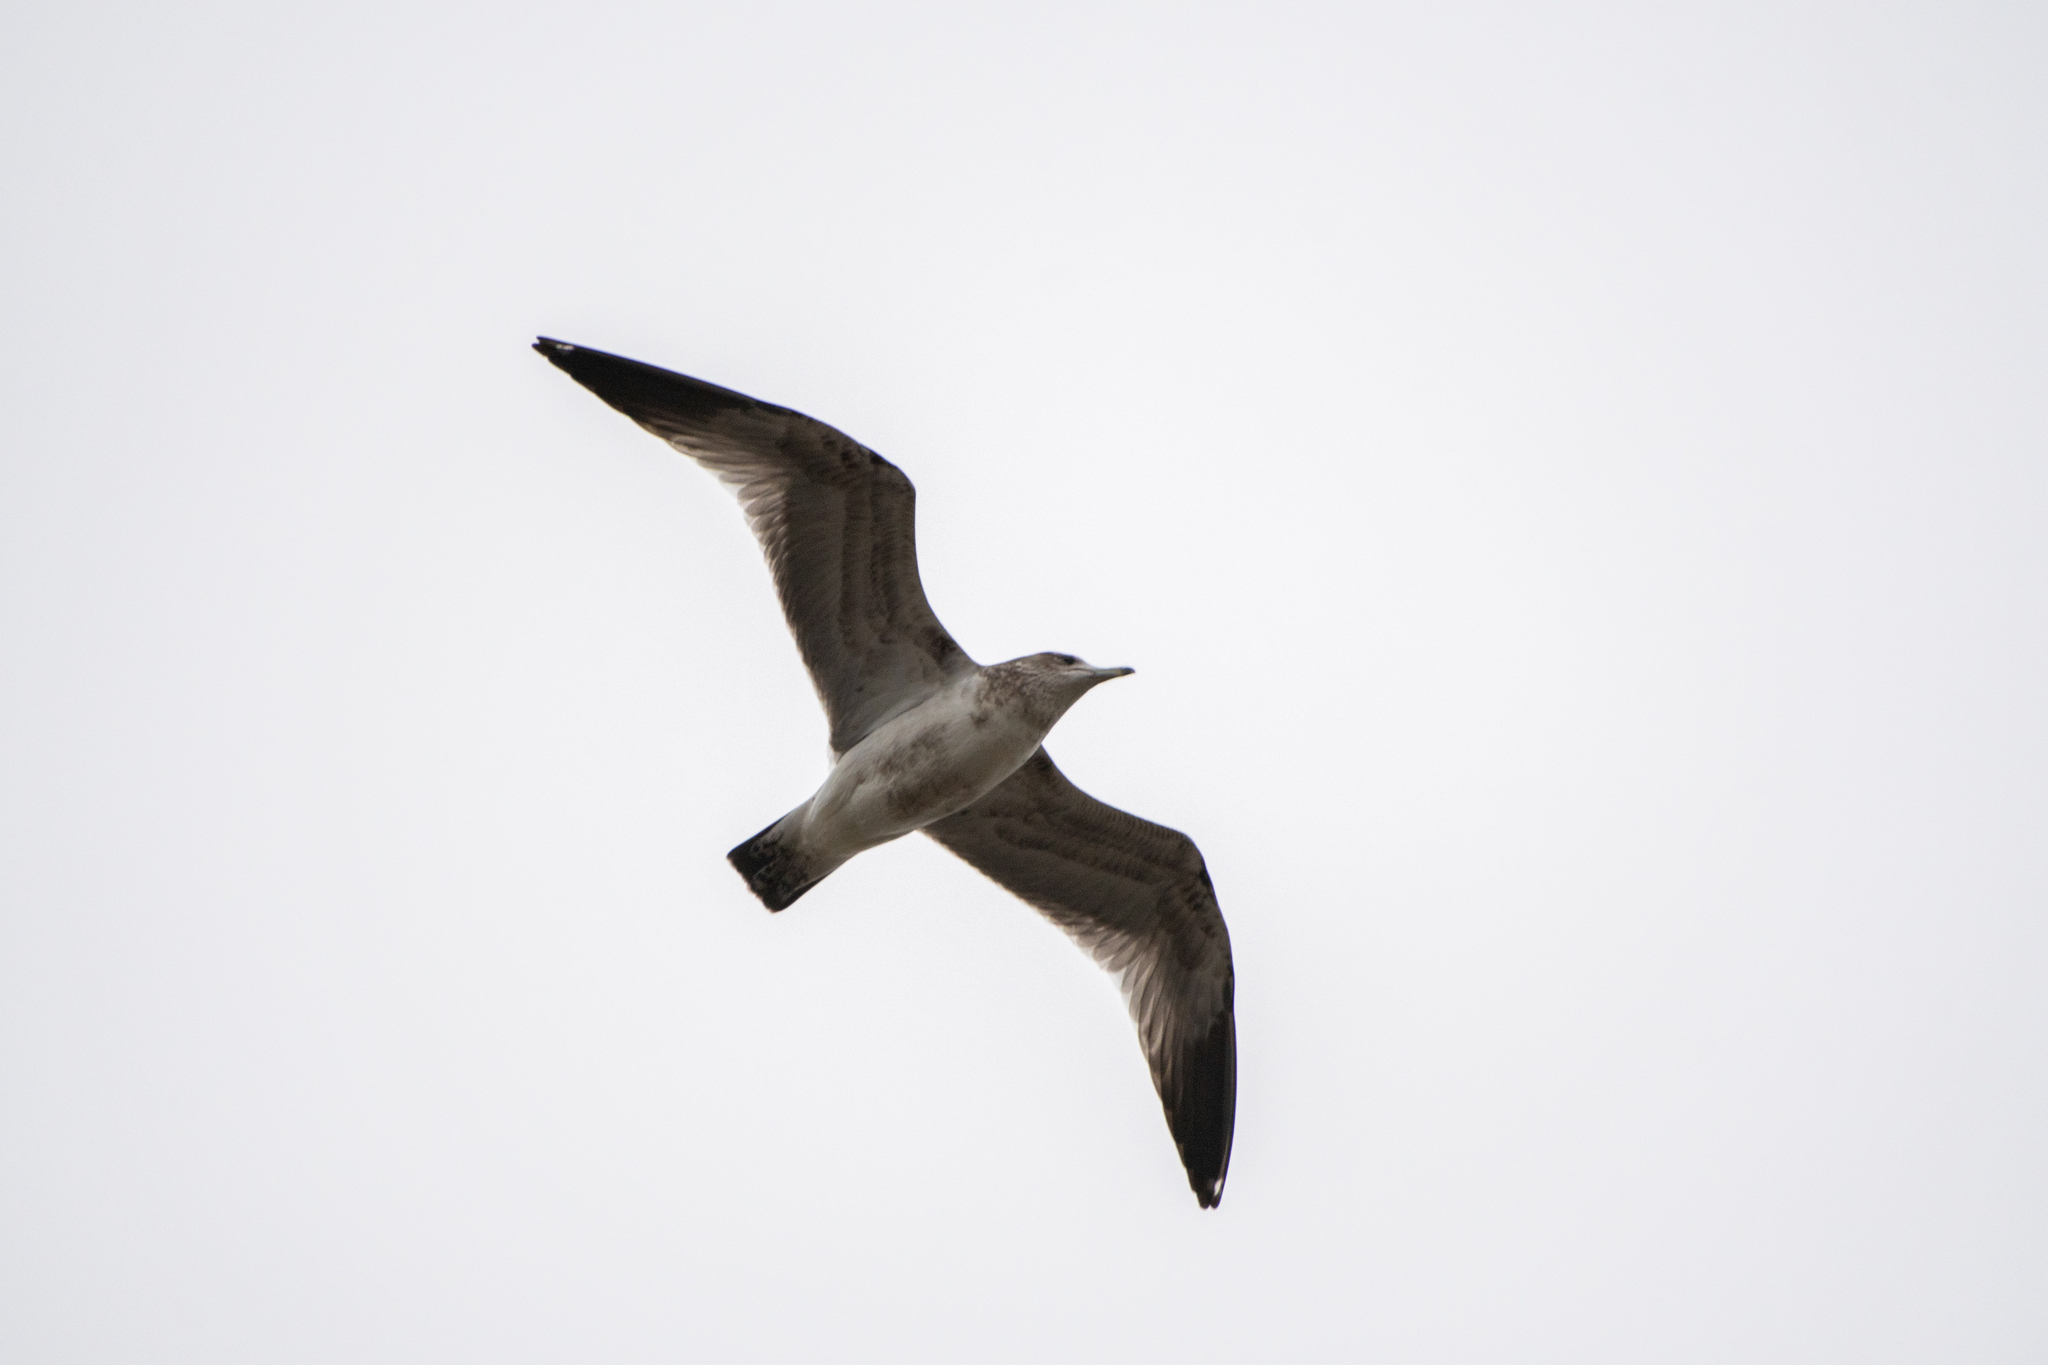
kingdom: Animalia
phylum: Chordata
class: Aves
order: Charadriiformes
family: Laridae
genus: Larus
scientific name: Larus delawarensis
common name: Ring-billed gull
